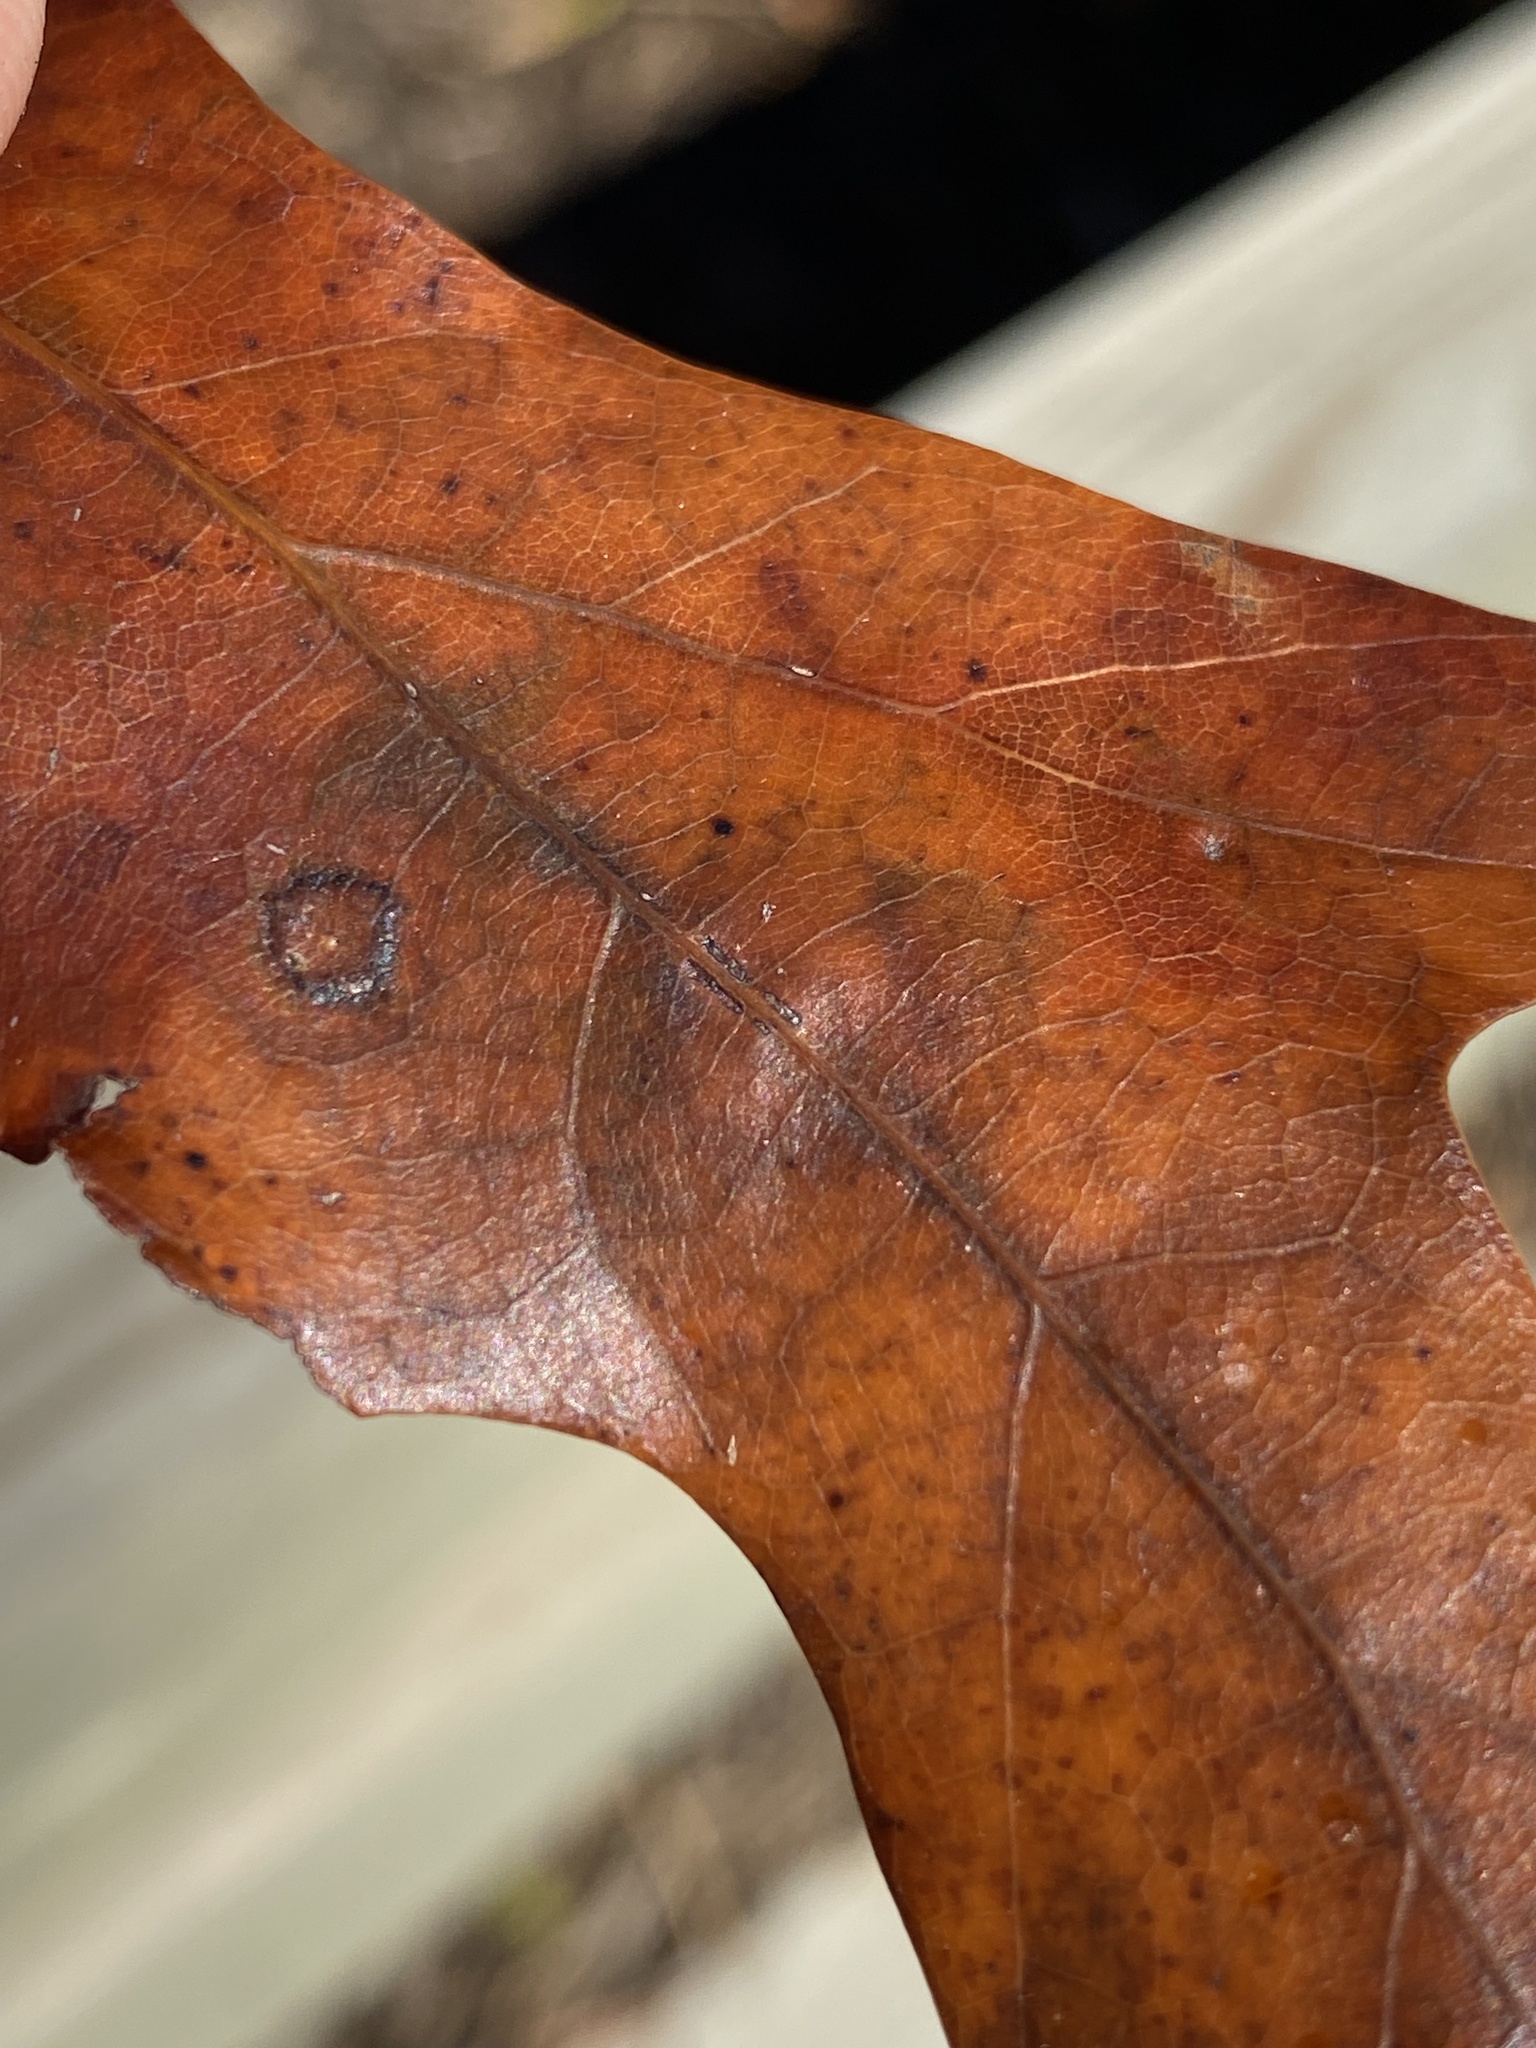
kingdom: Animalia
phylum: Arthropoda
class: Insecta
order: Hymenoptera
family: Cynipidae
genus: Callirhytis
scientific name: Callirhytis
